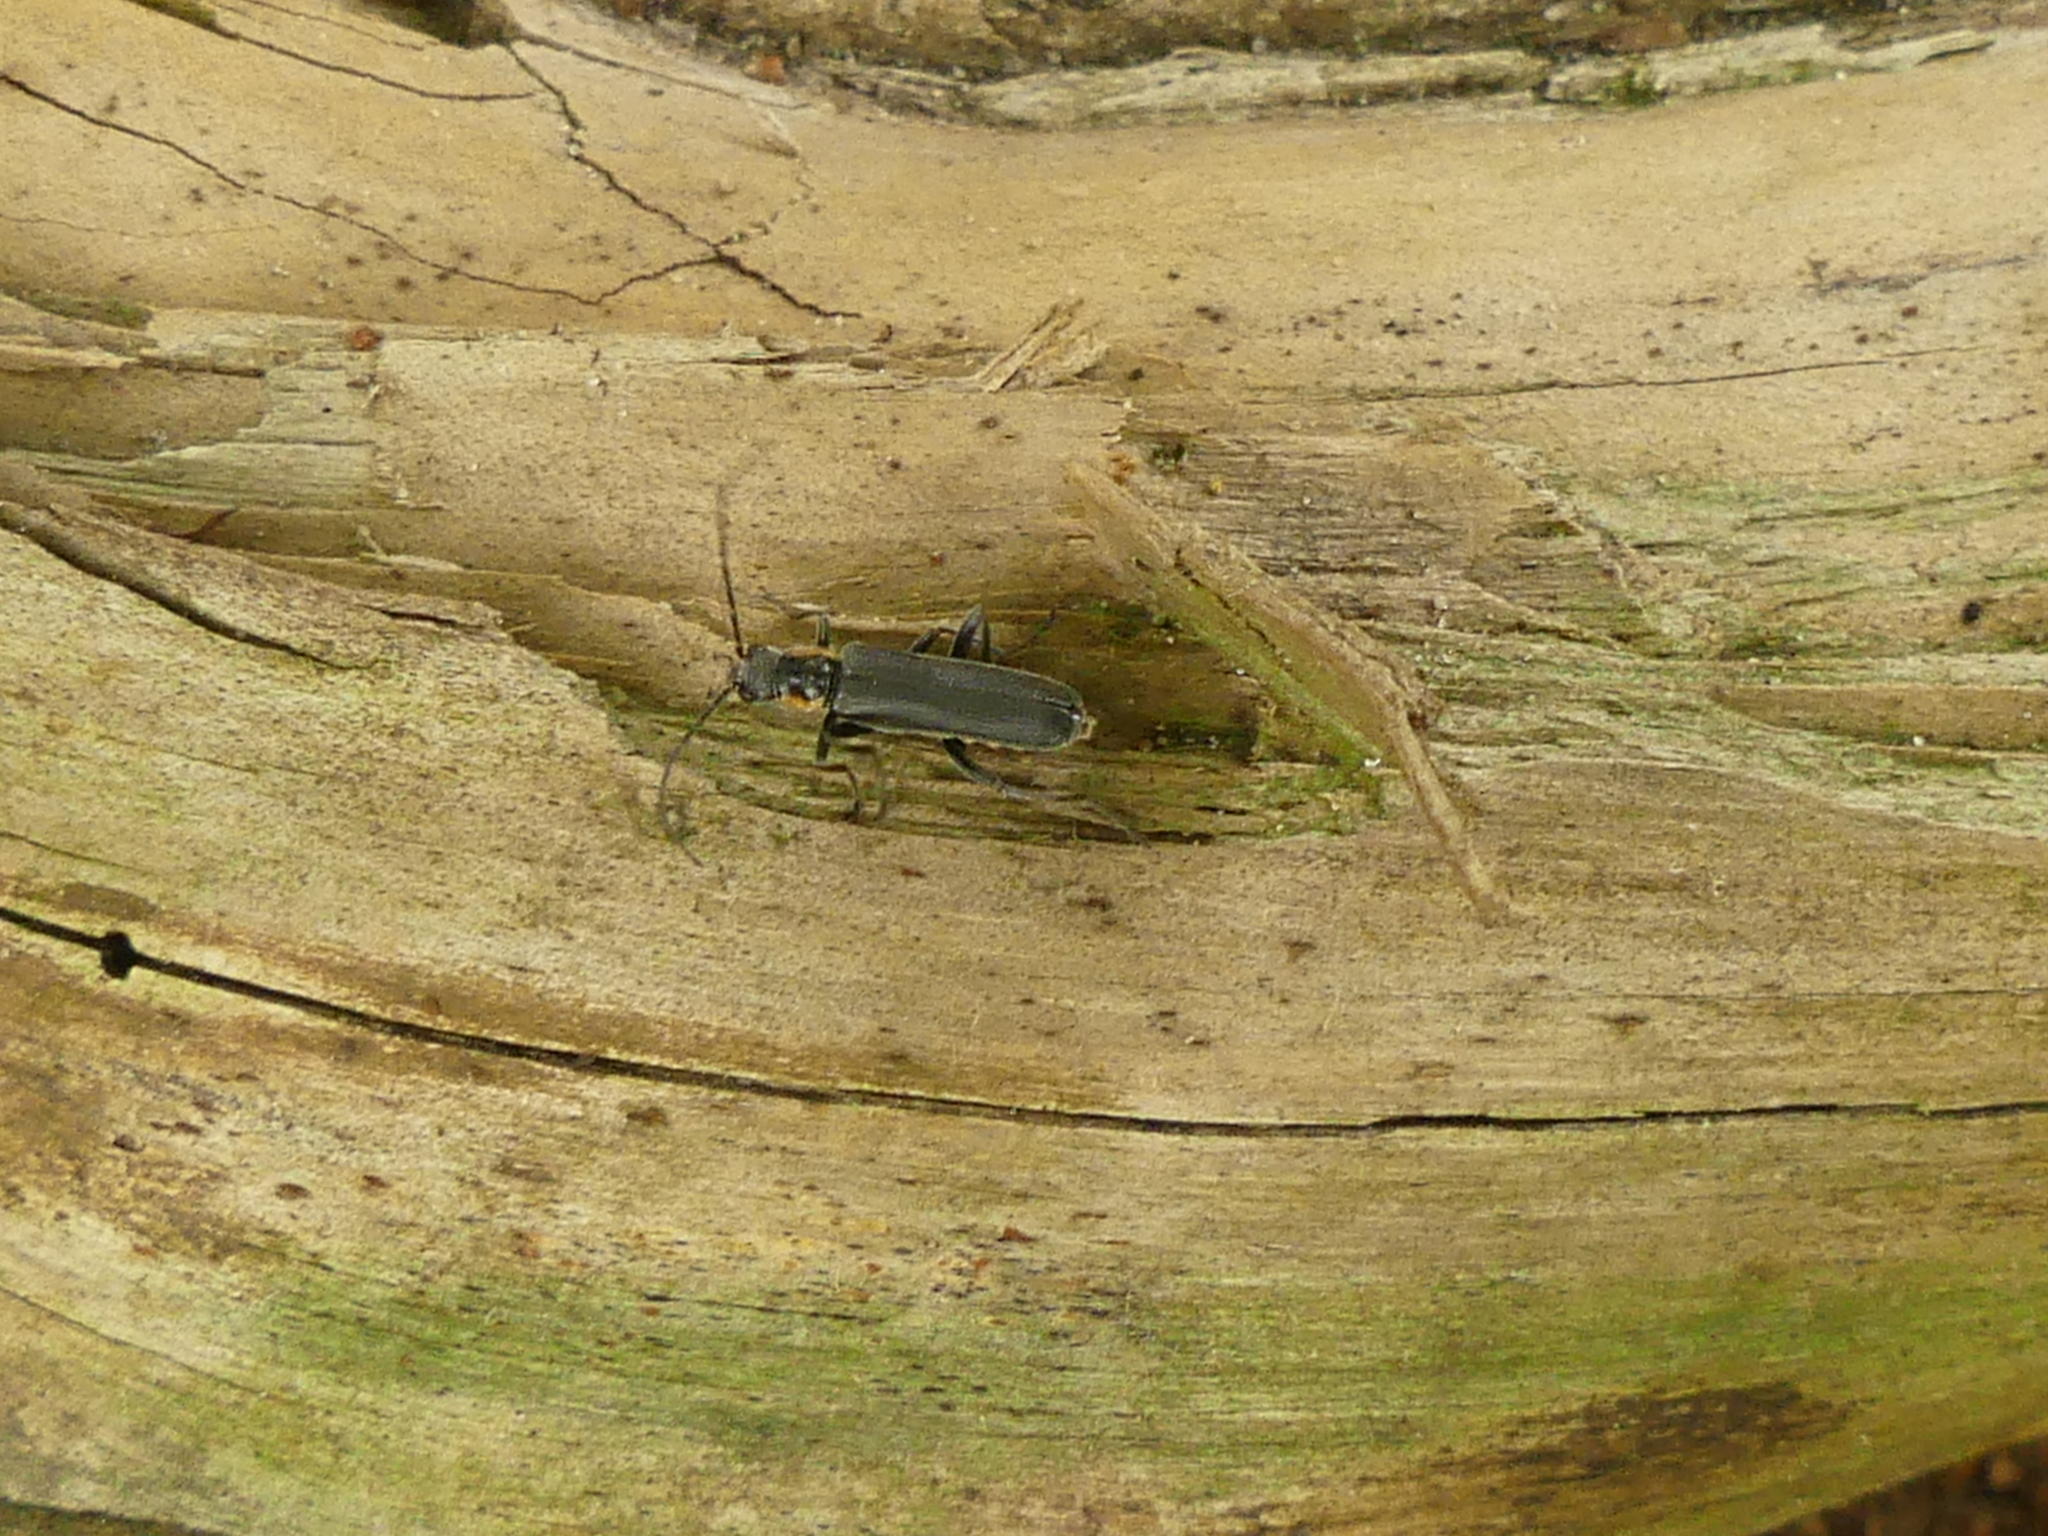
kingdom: Animalia
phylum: Arthropoda
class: Insecta
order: Coleoptera
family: Cantharidae
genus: Cantharis
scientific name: Cantharis obscura
